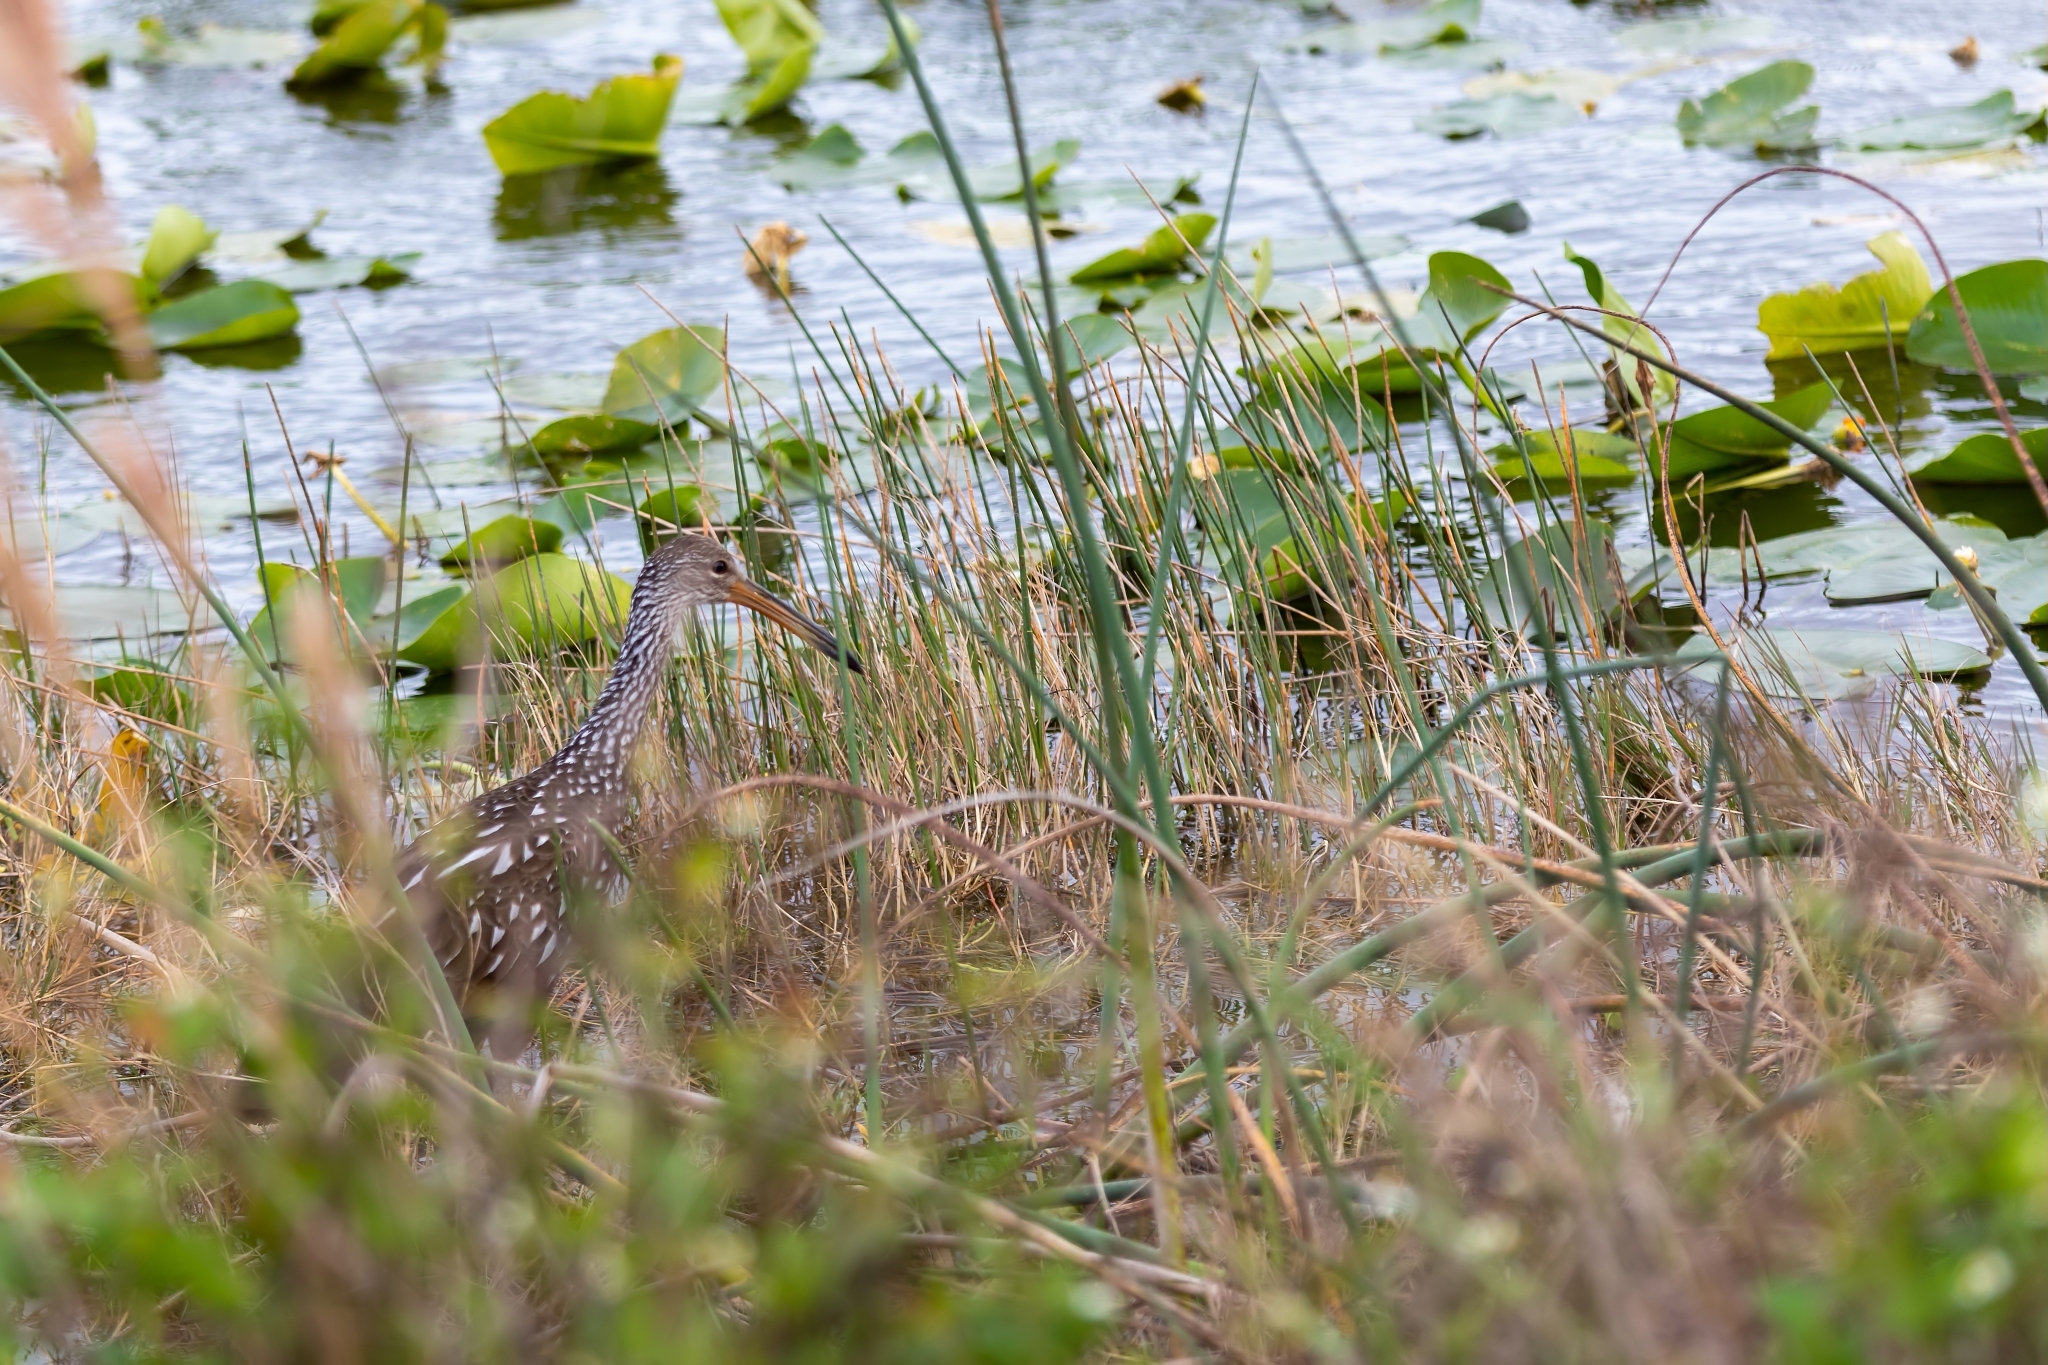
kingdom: Animalia
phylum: Chordata
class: Aves
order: Gruiformes
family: Aramidae
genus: Aramus
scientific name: Aramus guarauna
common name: Limpkin
